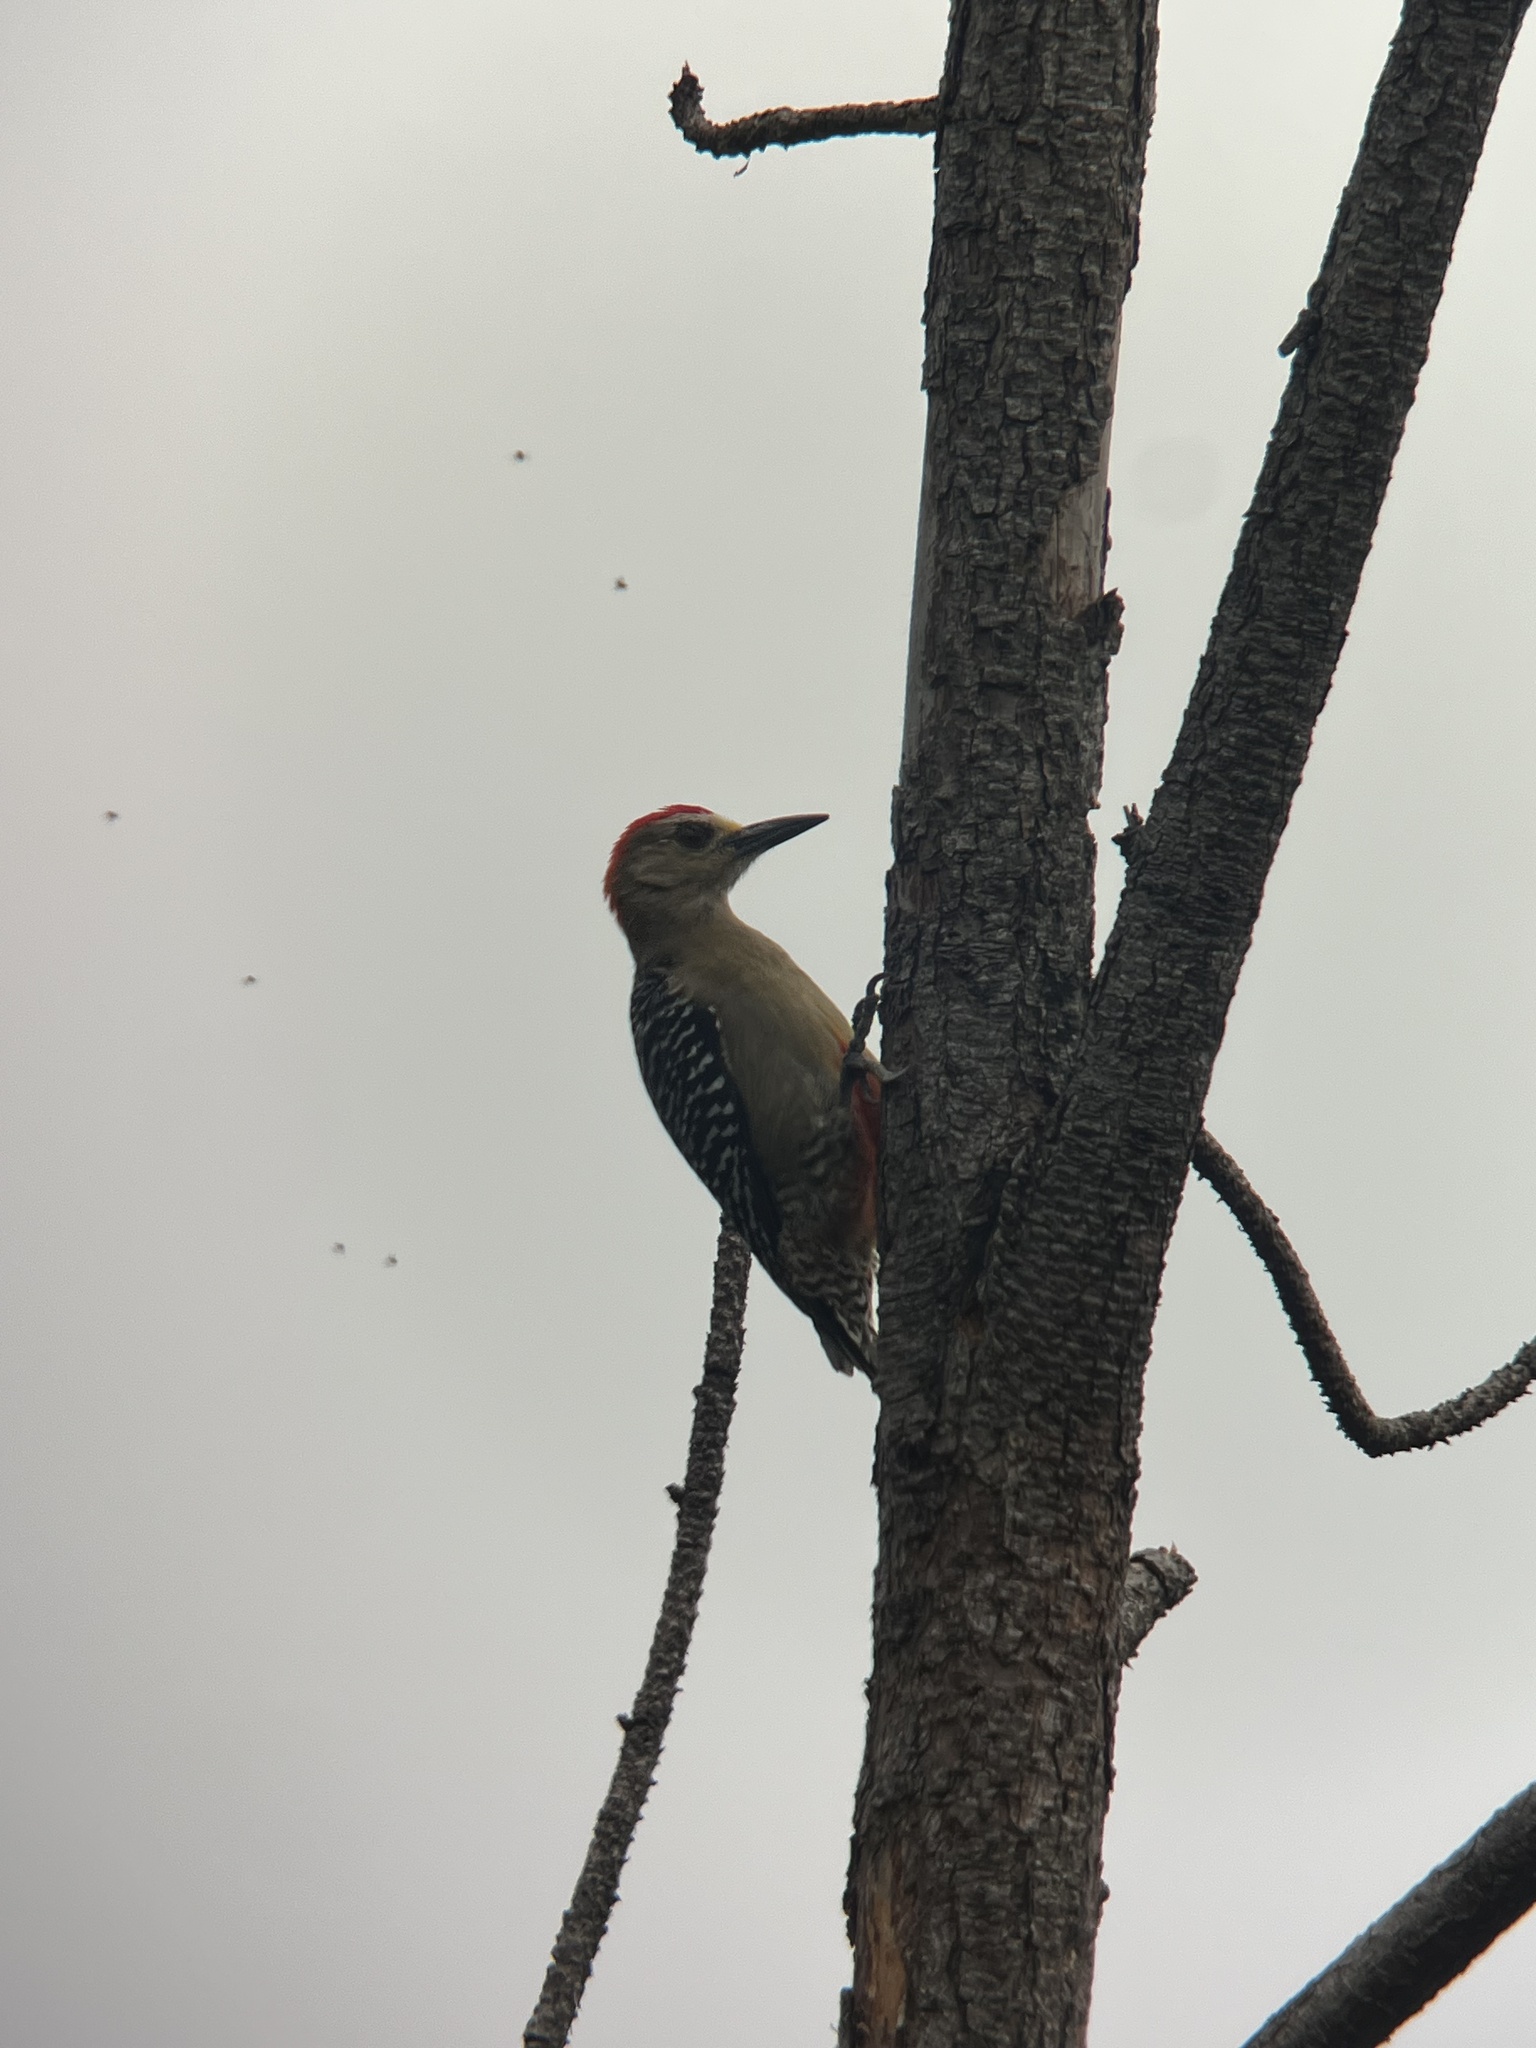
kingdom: Animalia
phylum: Chordata
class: Aves
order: Piciformes
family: Picidae
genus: Melanerpes
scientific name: Melanerpes rubricapillus
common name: Red-crowned woodpecker
